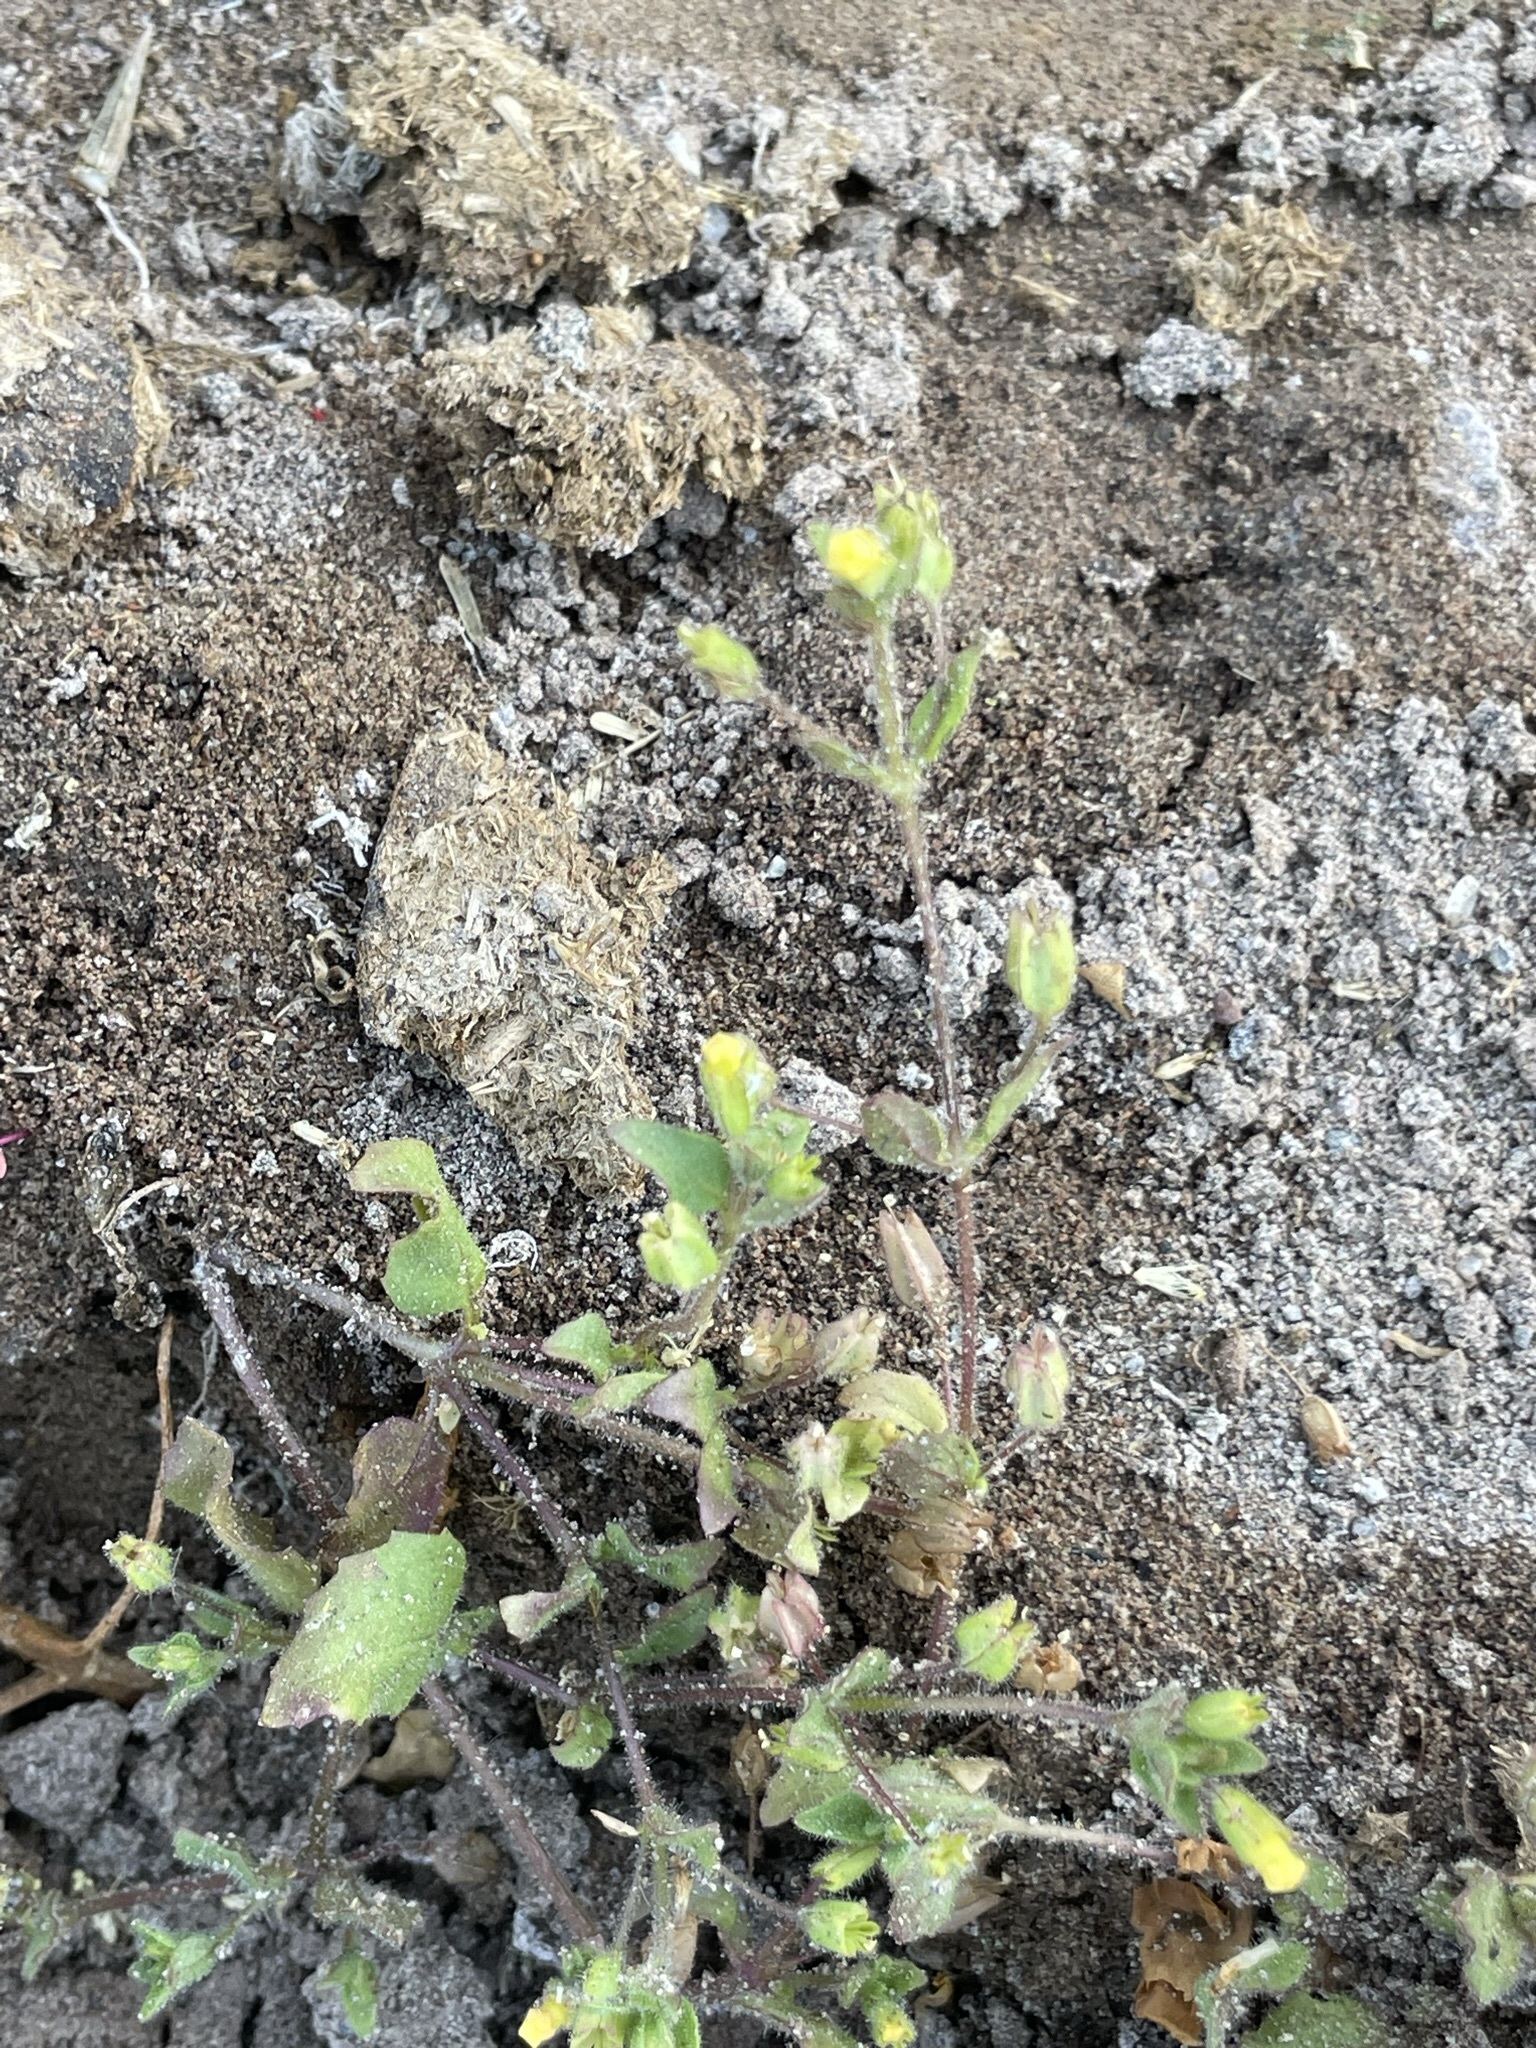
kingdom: Plantae
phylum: Tracheophyta
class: Magnoliopsida
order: Lamiales
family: Phrymaceae
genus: Erythranthe
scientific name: Erythranthe floribunda
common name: Floriferous monkeyflower
